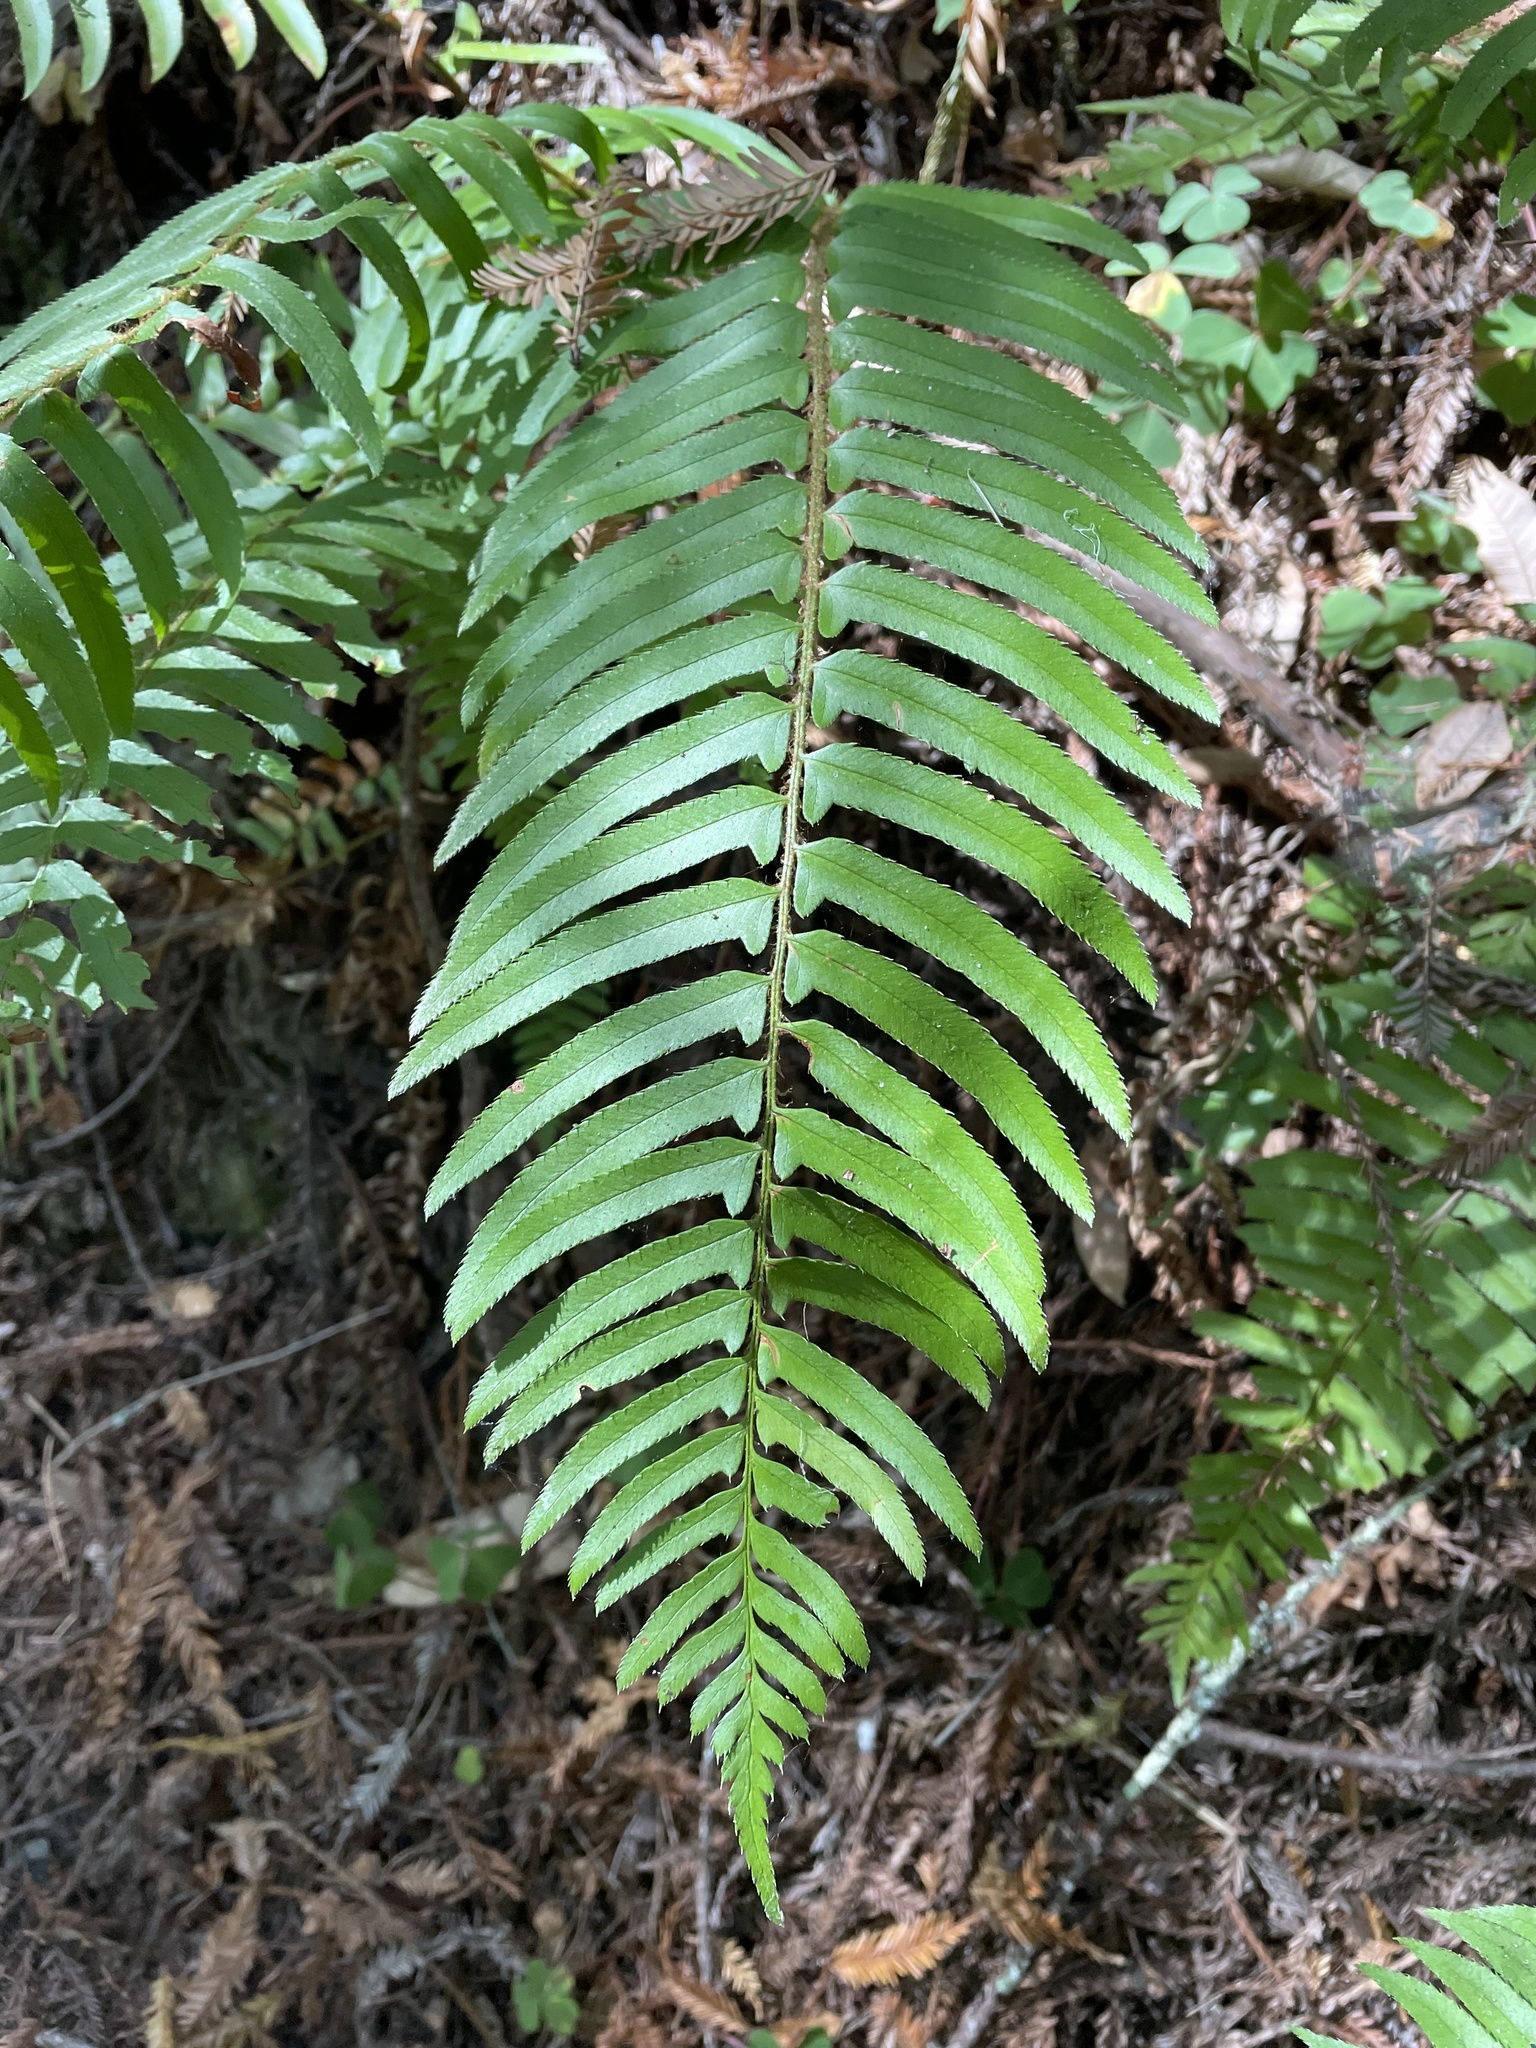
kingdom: Plantae
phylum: Tracheophyta
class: Polypodiopsida
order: Polypodiales
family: Dryopteridaceae
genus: Polystichum
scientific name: Polystichum munitum
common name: Western sword-fern
